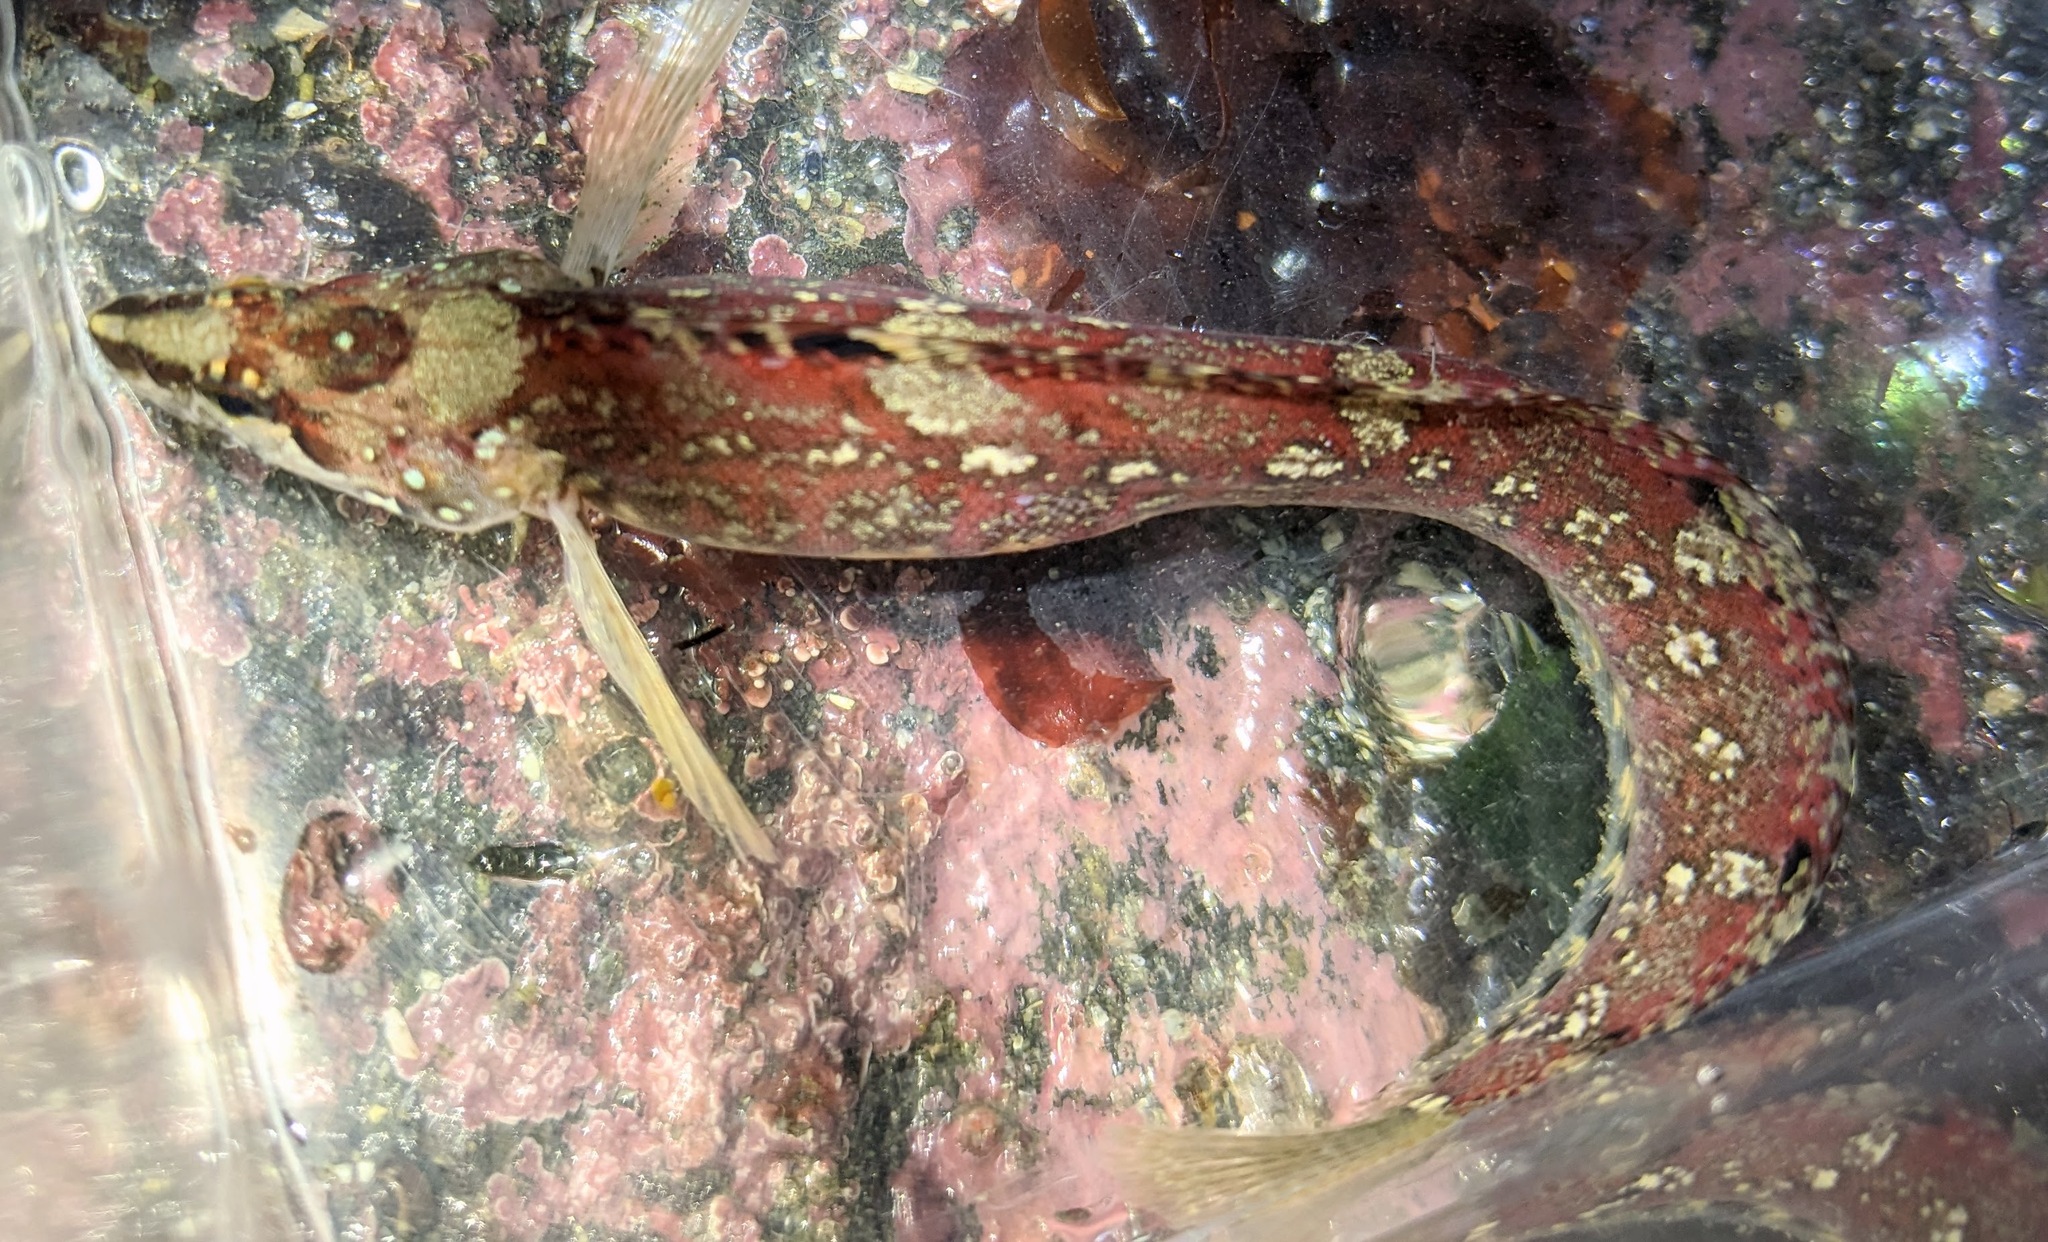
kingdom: Animalia
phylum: Chordata
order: Perciformes
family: Stichaeidae
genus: Stichaeus
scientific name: Stichaeus punctatus
